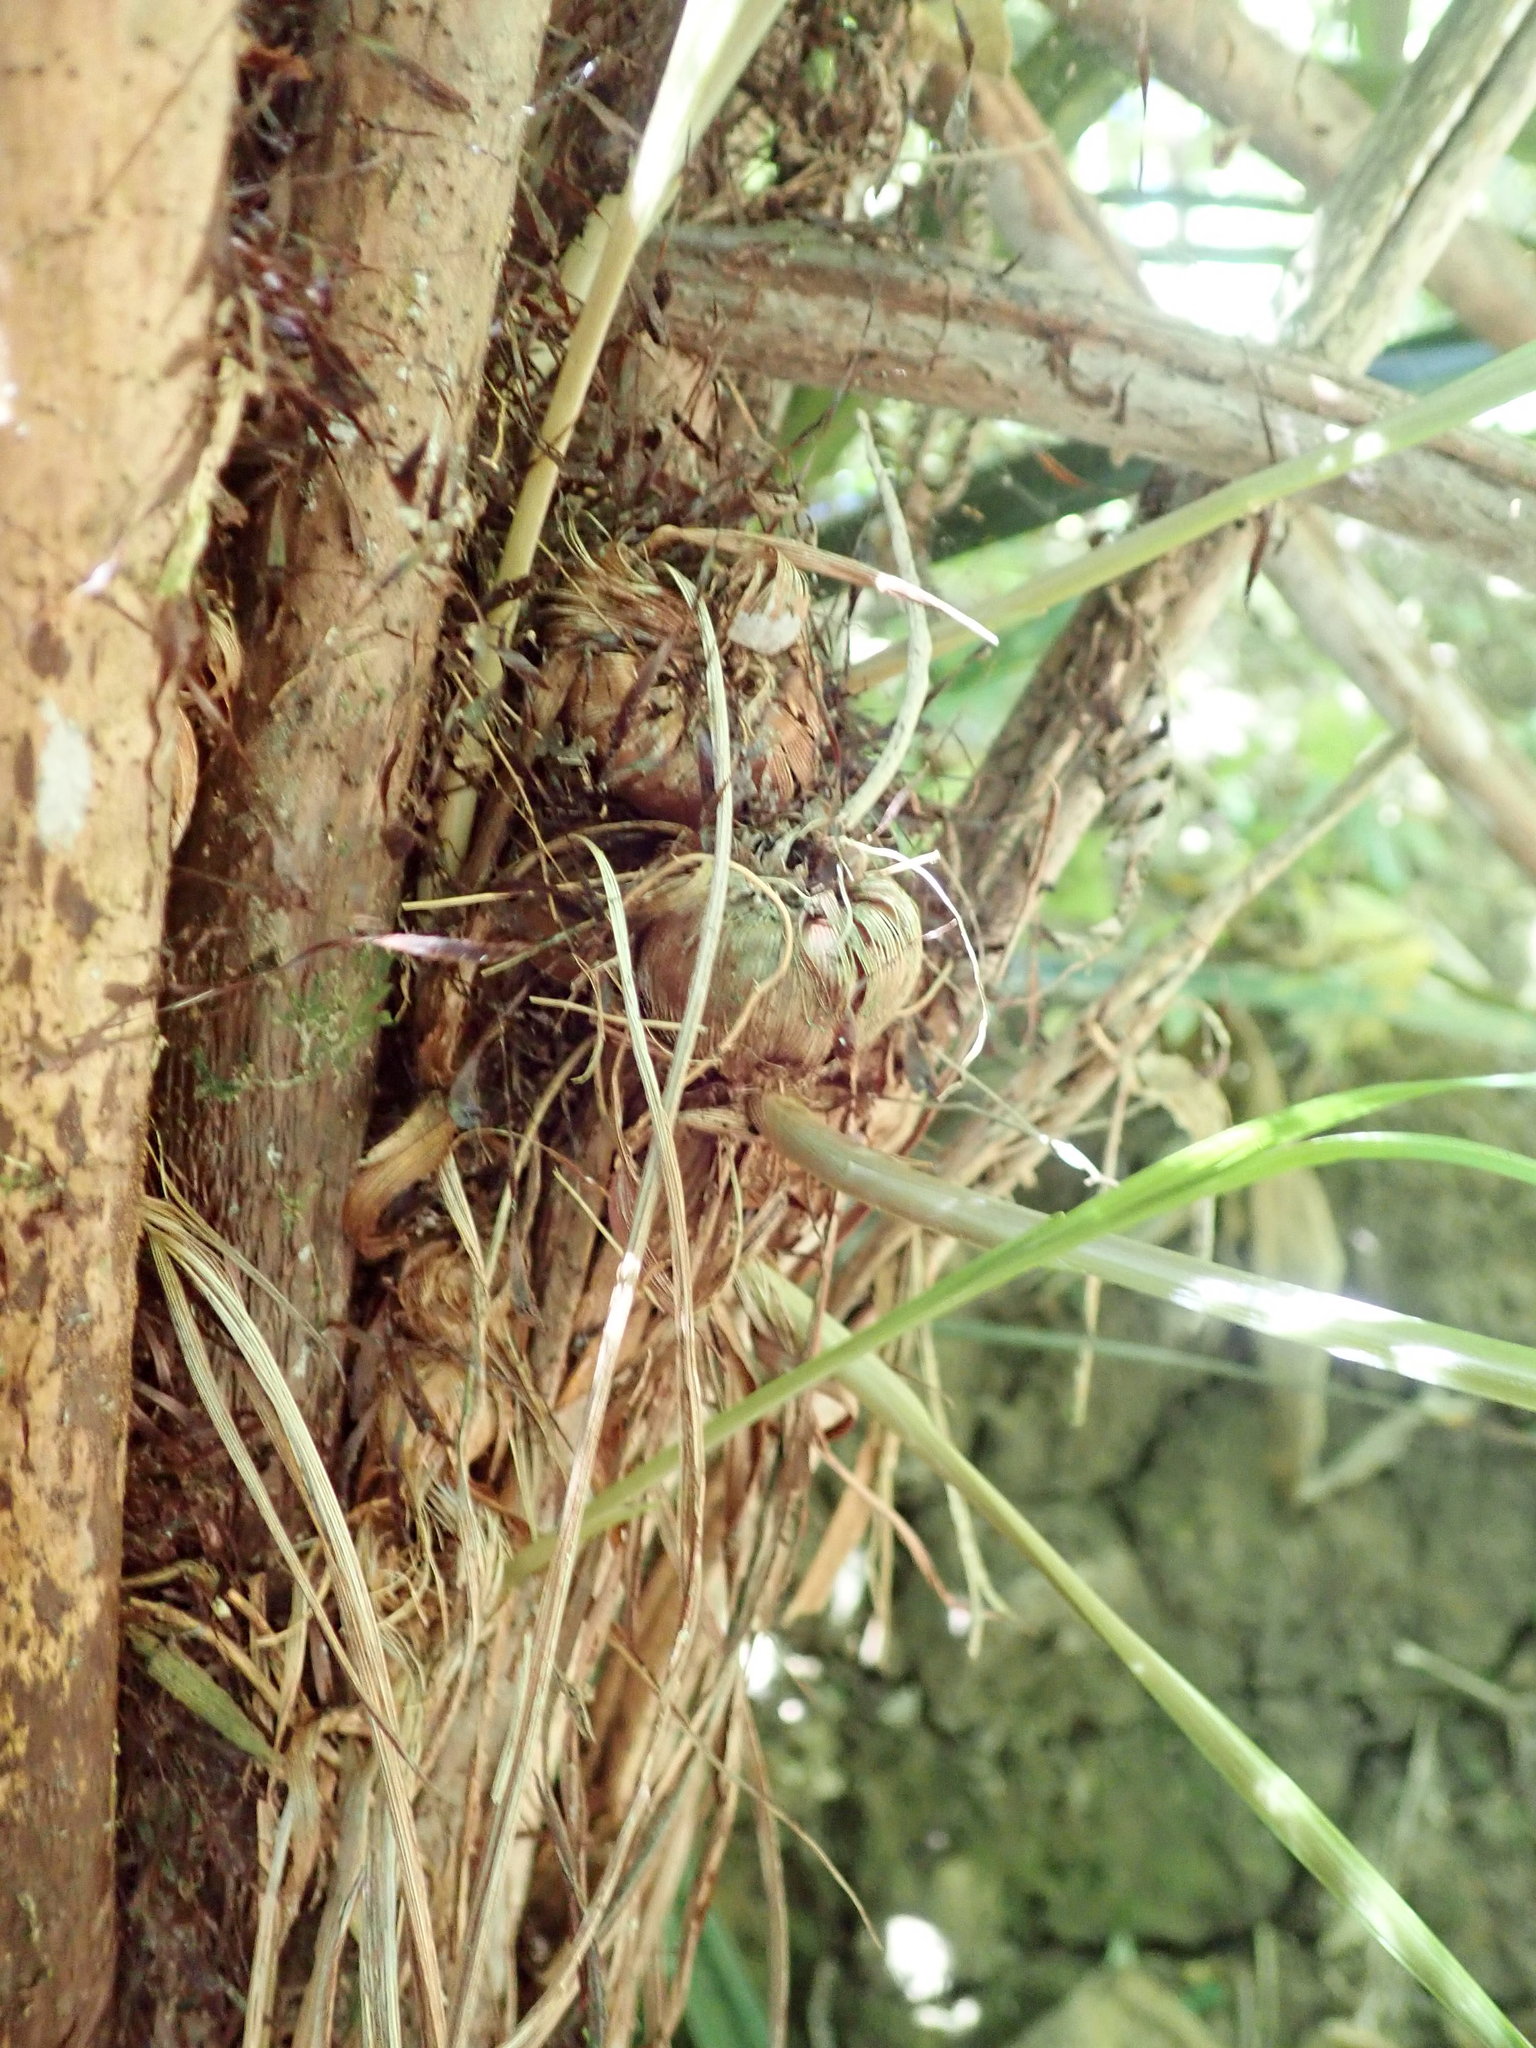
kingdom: Plantae
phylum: Tracheophyta
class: Liliopsida
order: Asparagales
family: Iridaceae
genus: Crocosmia
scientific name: Crocosmia crocosmiiflora
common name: Montbretia
